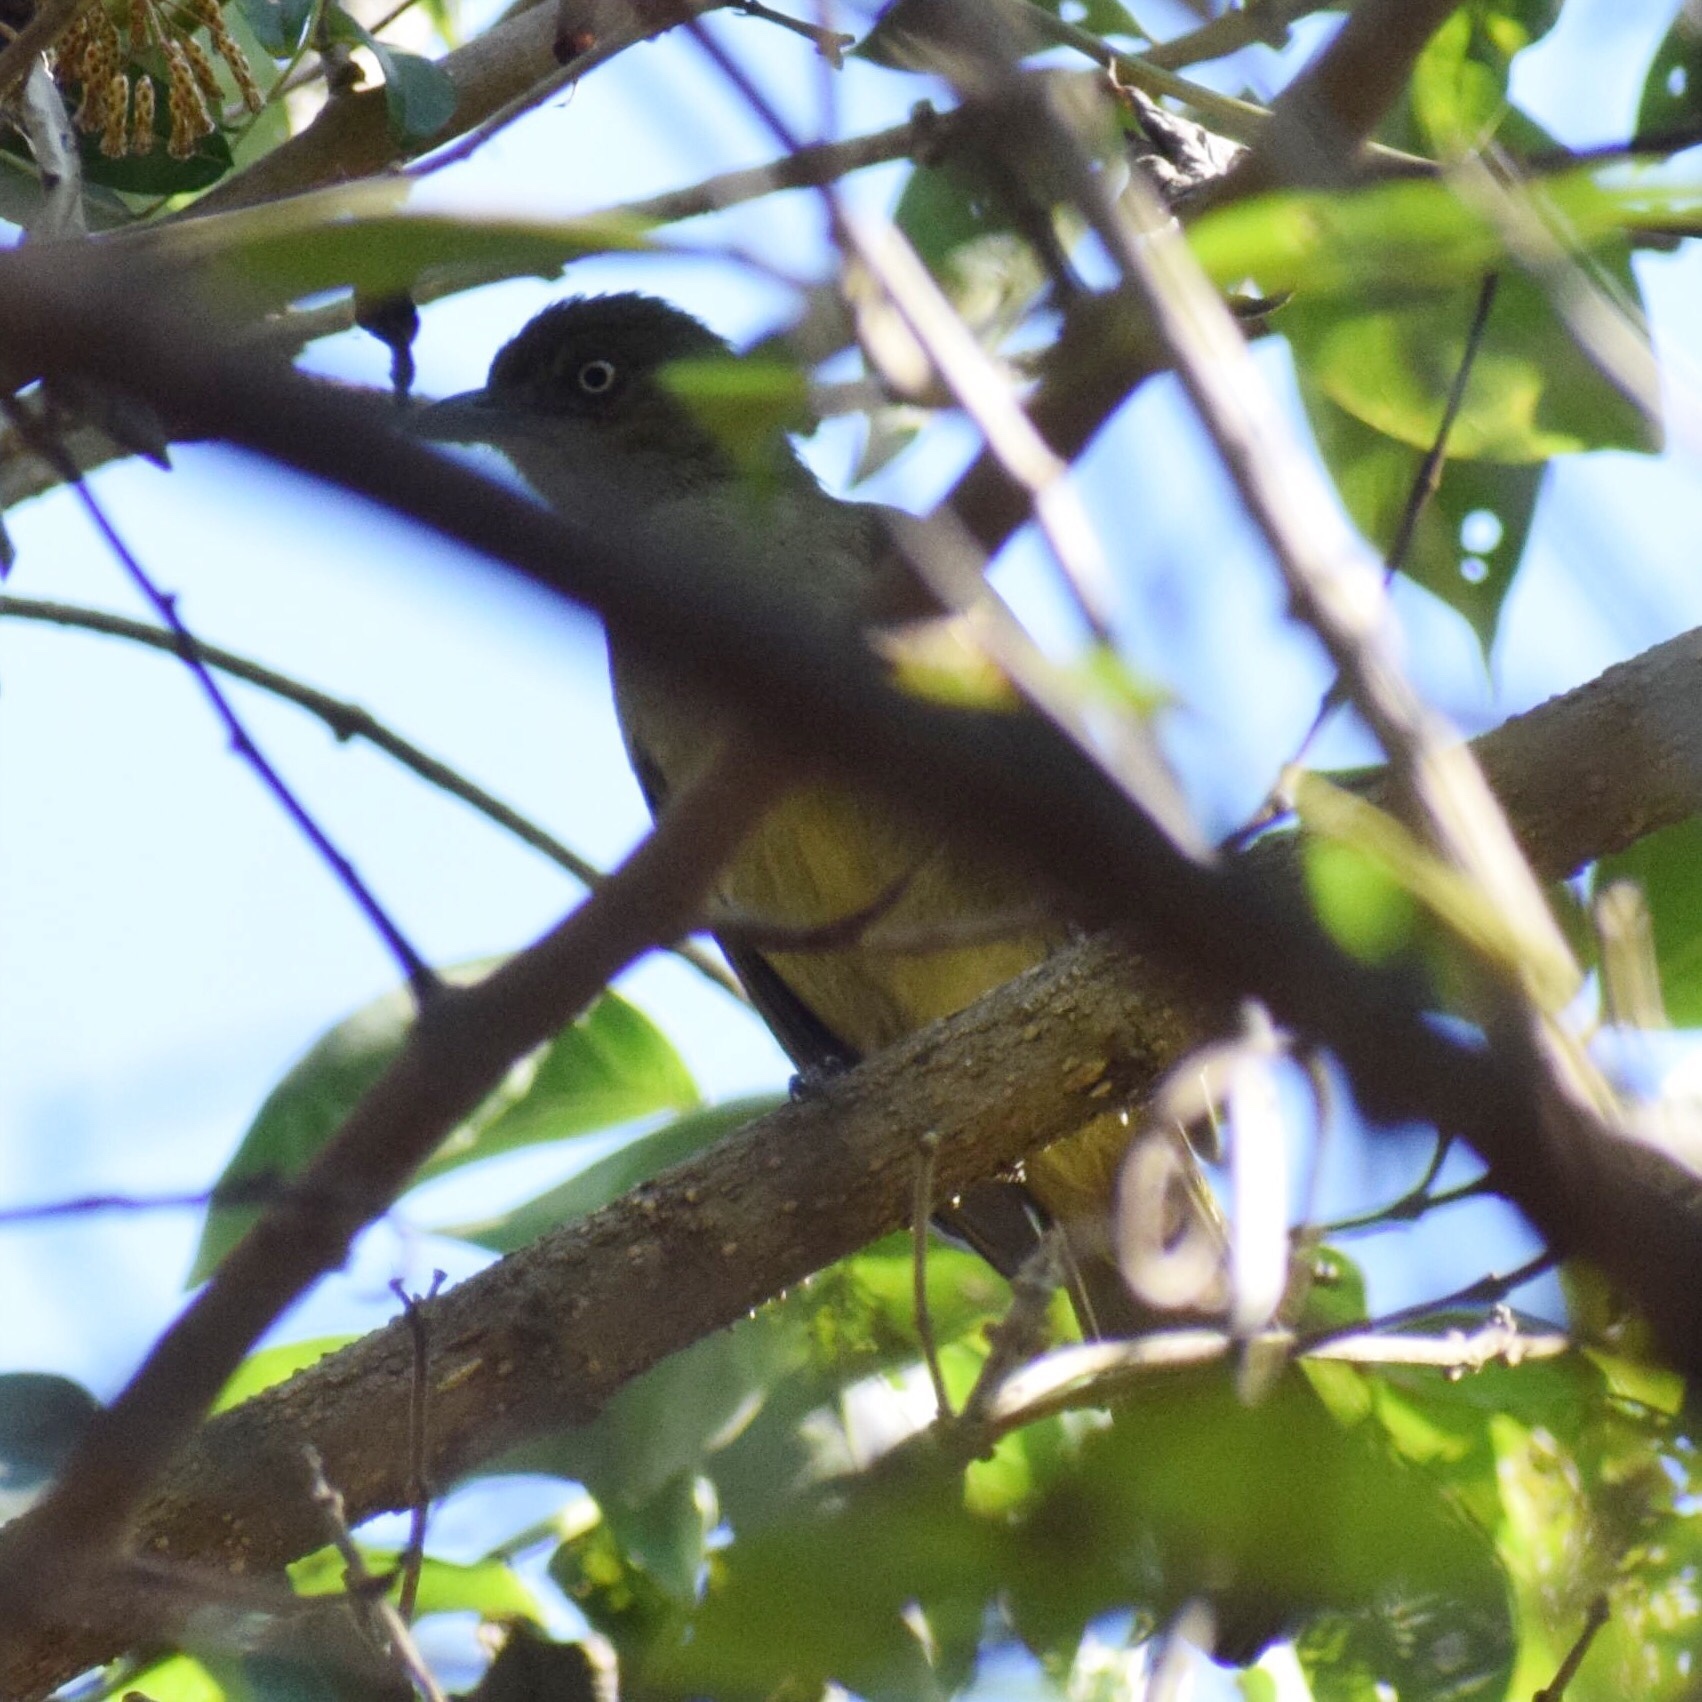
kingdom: Animalia
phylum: Chordata
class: Aves
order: Passeriformes
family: Pycnonotidae
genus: Andropadus
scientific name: Andropadus importunus
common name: Sombre greenbul
